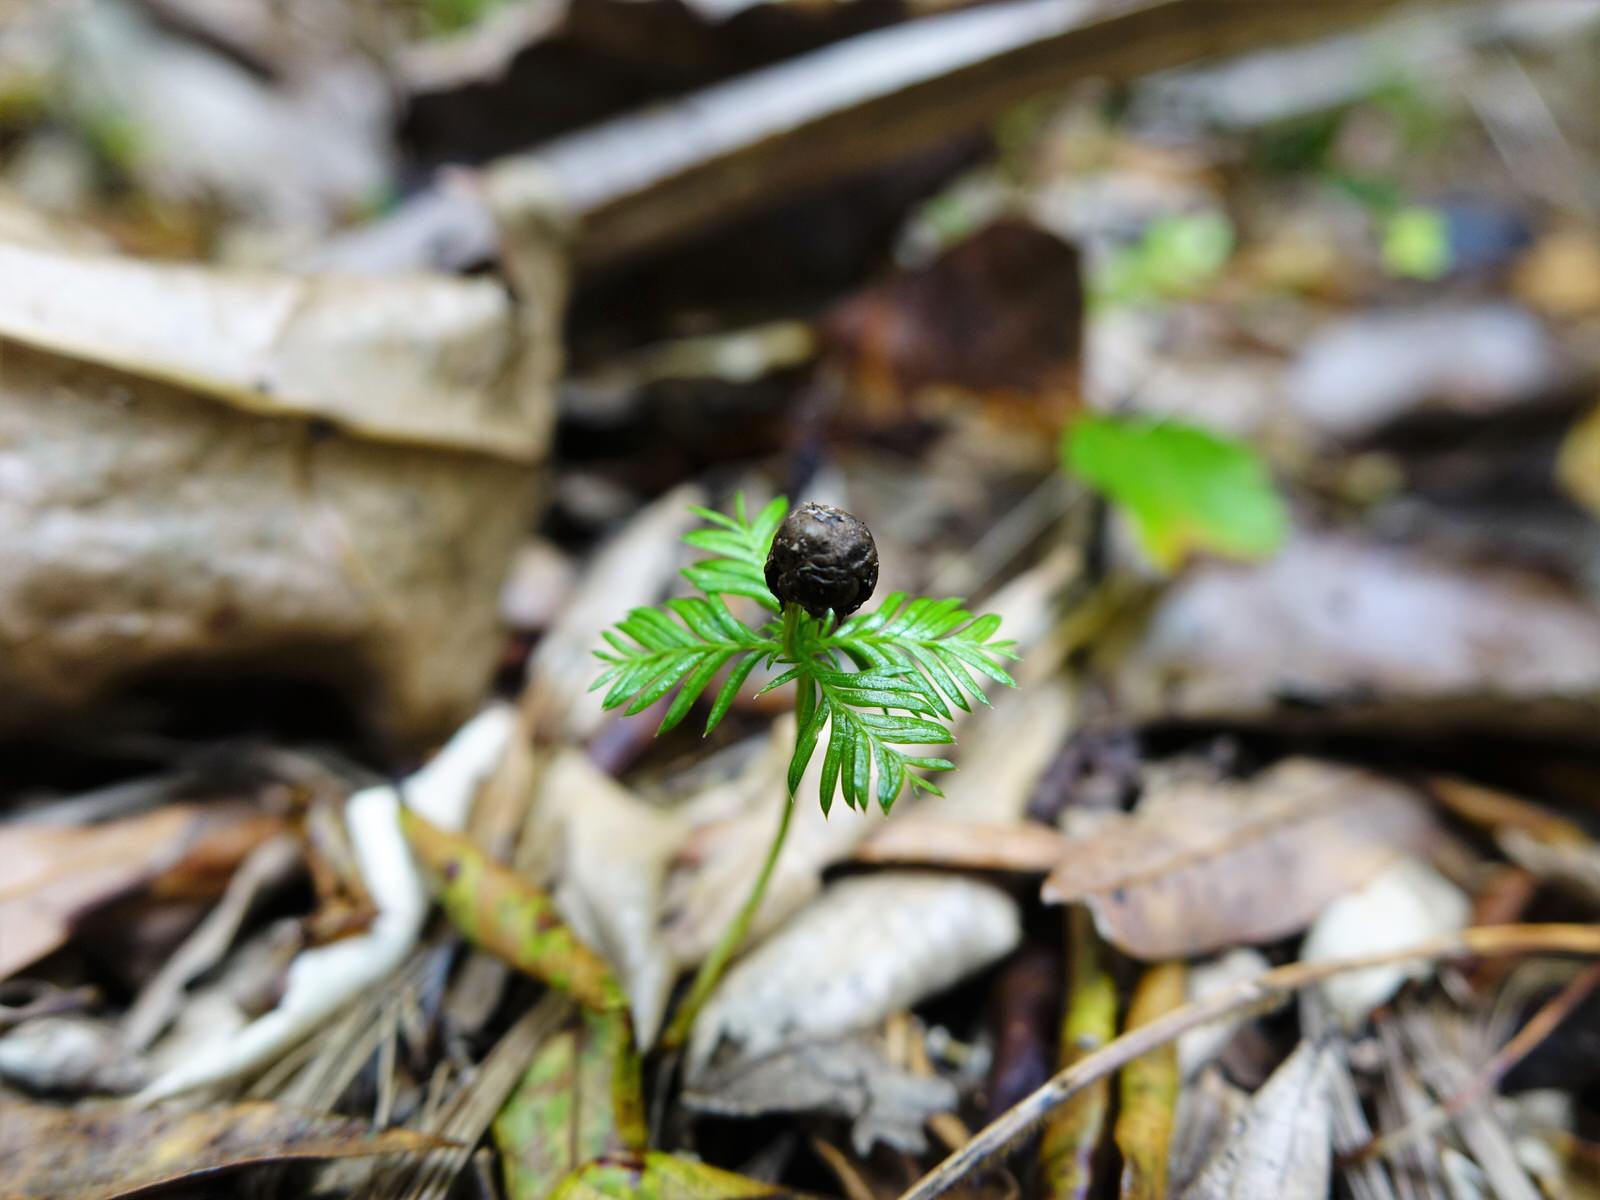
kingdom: Plantae
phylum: Tracheophyta
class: Pinopsida
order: Pinales
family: Podocarpaceae
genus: Dacrycarpus
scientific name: Dacrycarpus dacrydioides
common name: White pine
